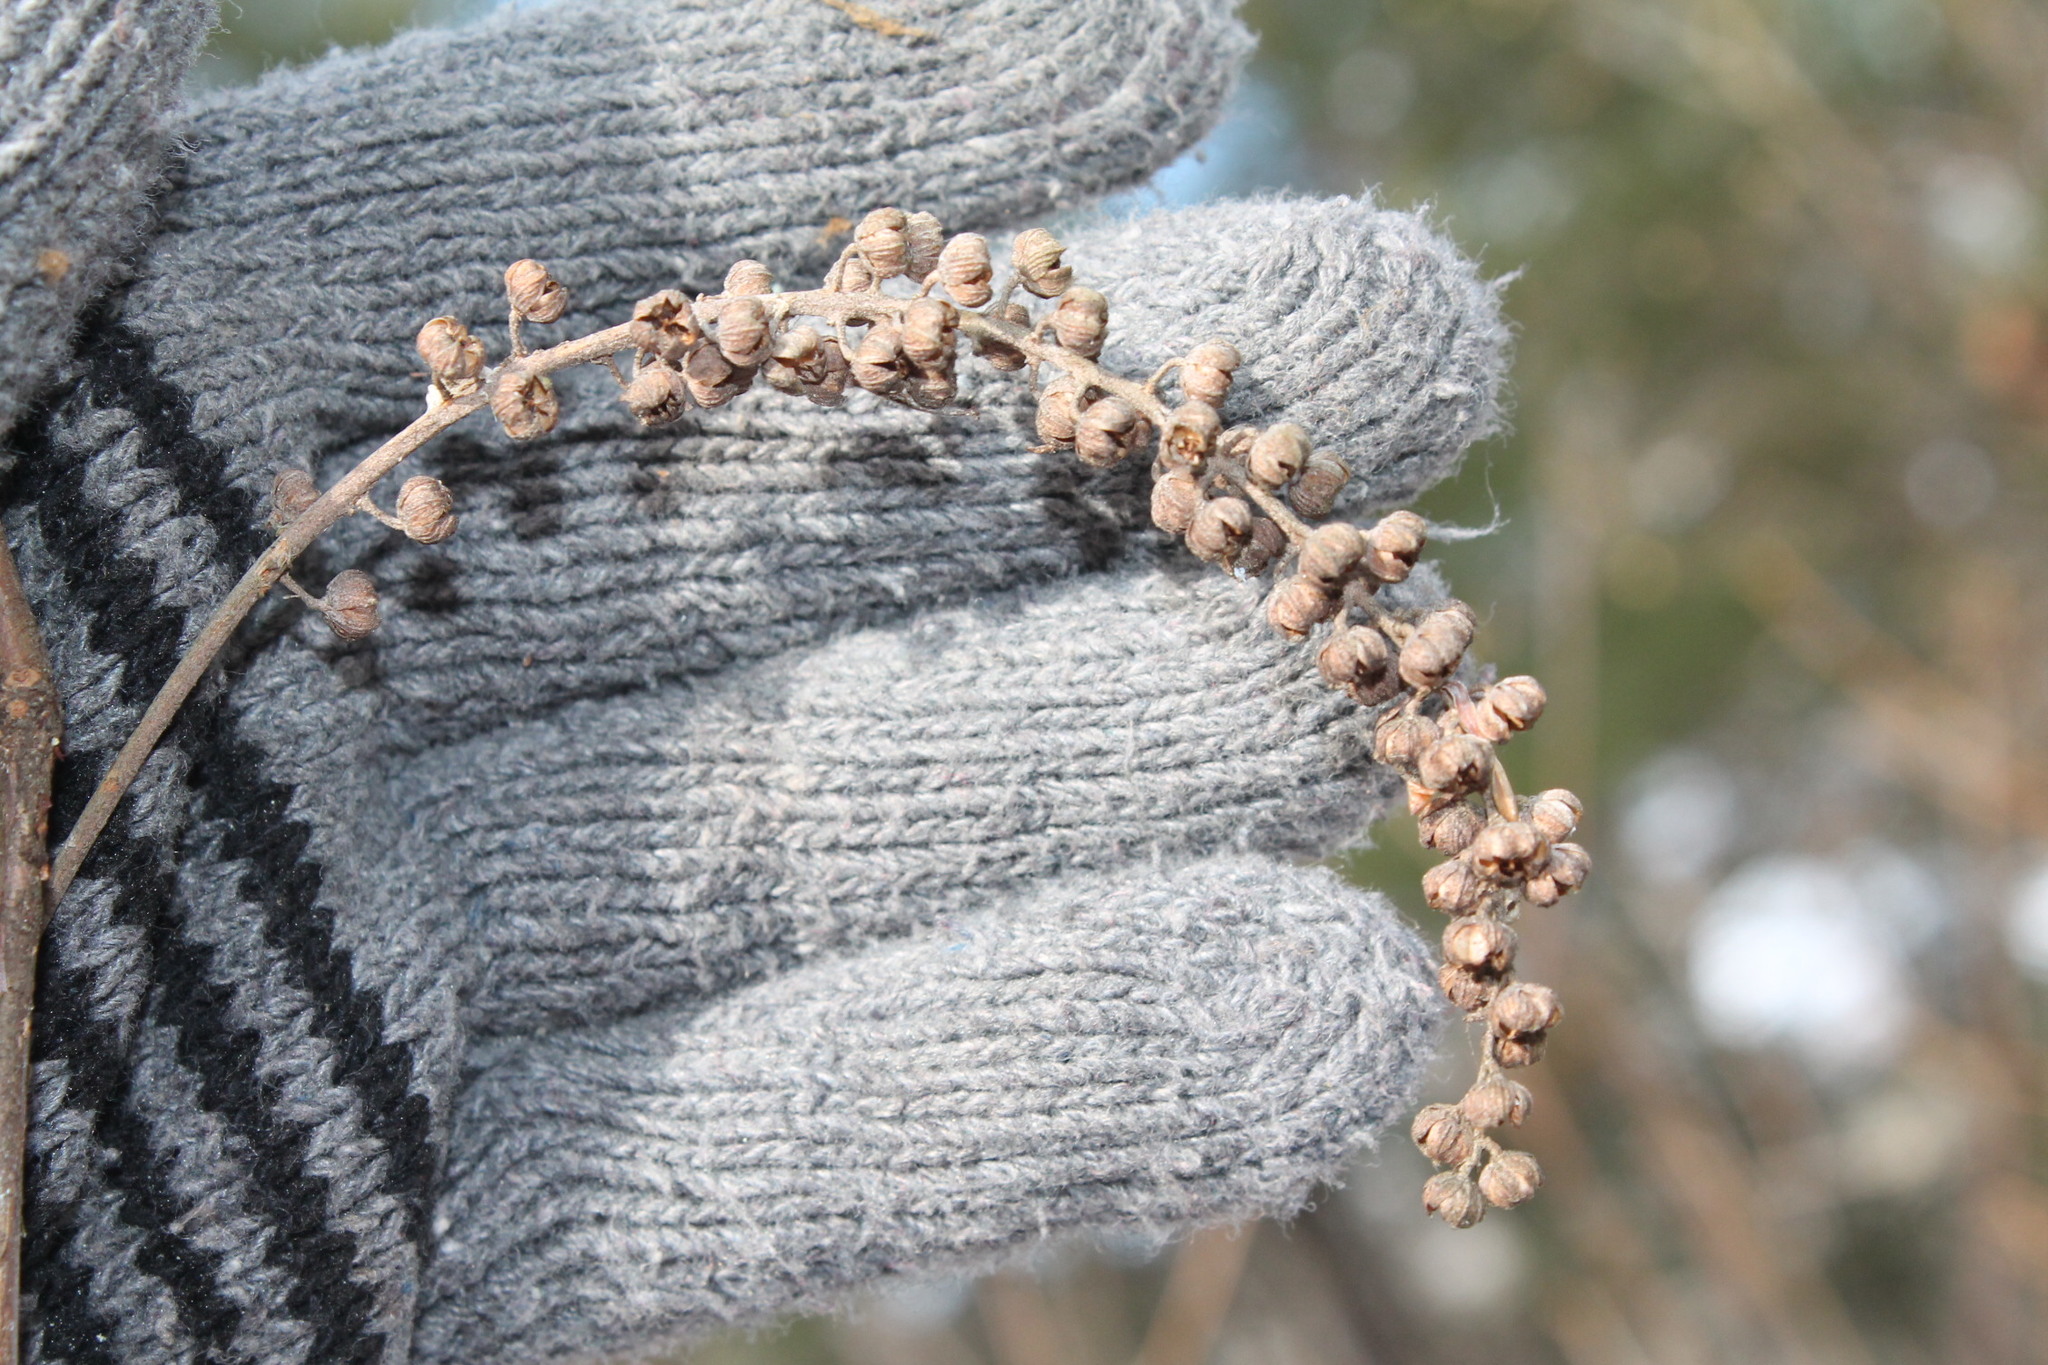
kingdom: Plantae
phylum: Tracheophyta
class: Magnoliopsida
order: Ericales
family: Clethraceae
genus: Clethra
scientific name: Clethra alnifolia
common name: Sweet pepperbush
